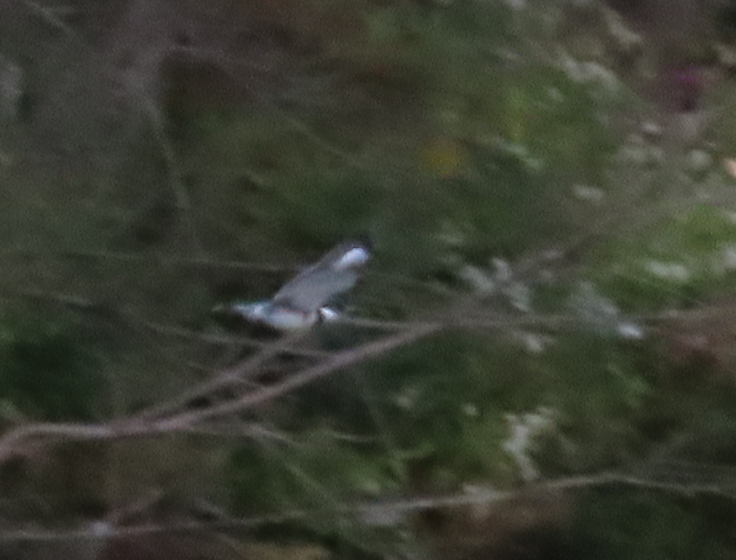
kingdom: Animalia
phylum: Chordata
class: Aves
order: Coraciiformes
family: Alcedinidae
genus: Megaceryle
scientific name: Megaceryle alcyon
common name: Belted kingfisher
